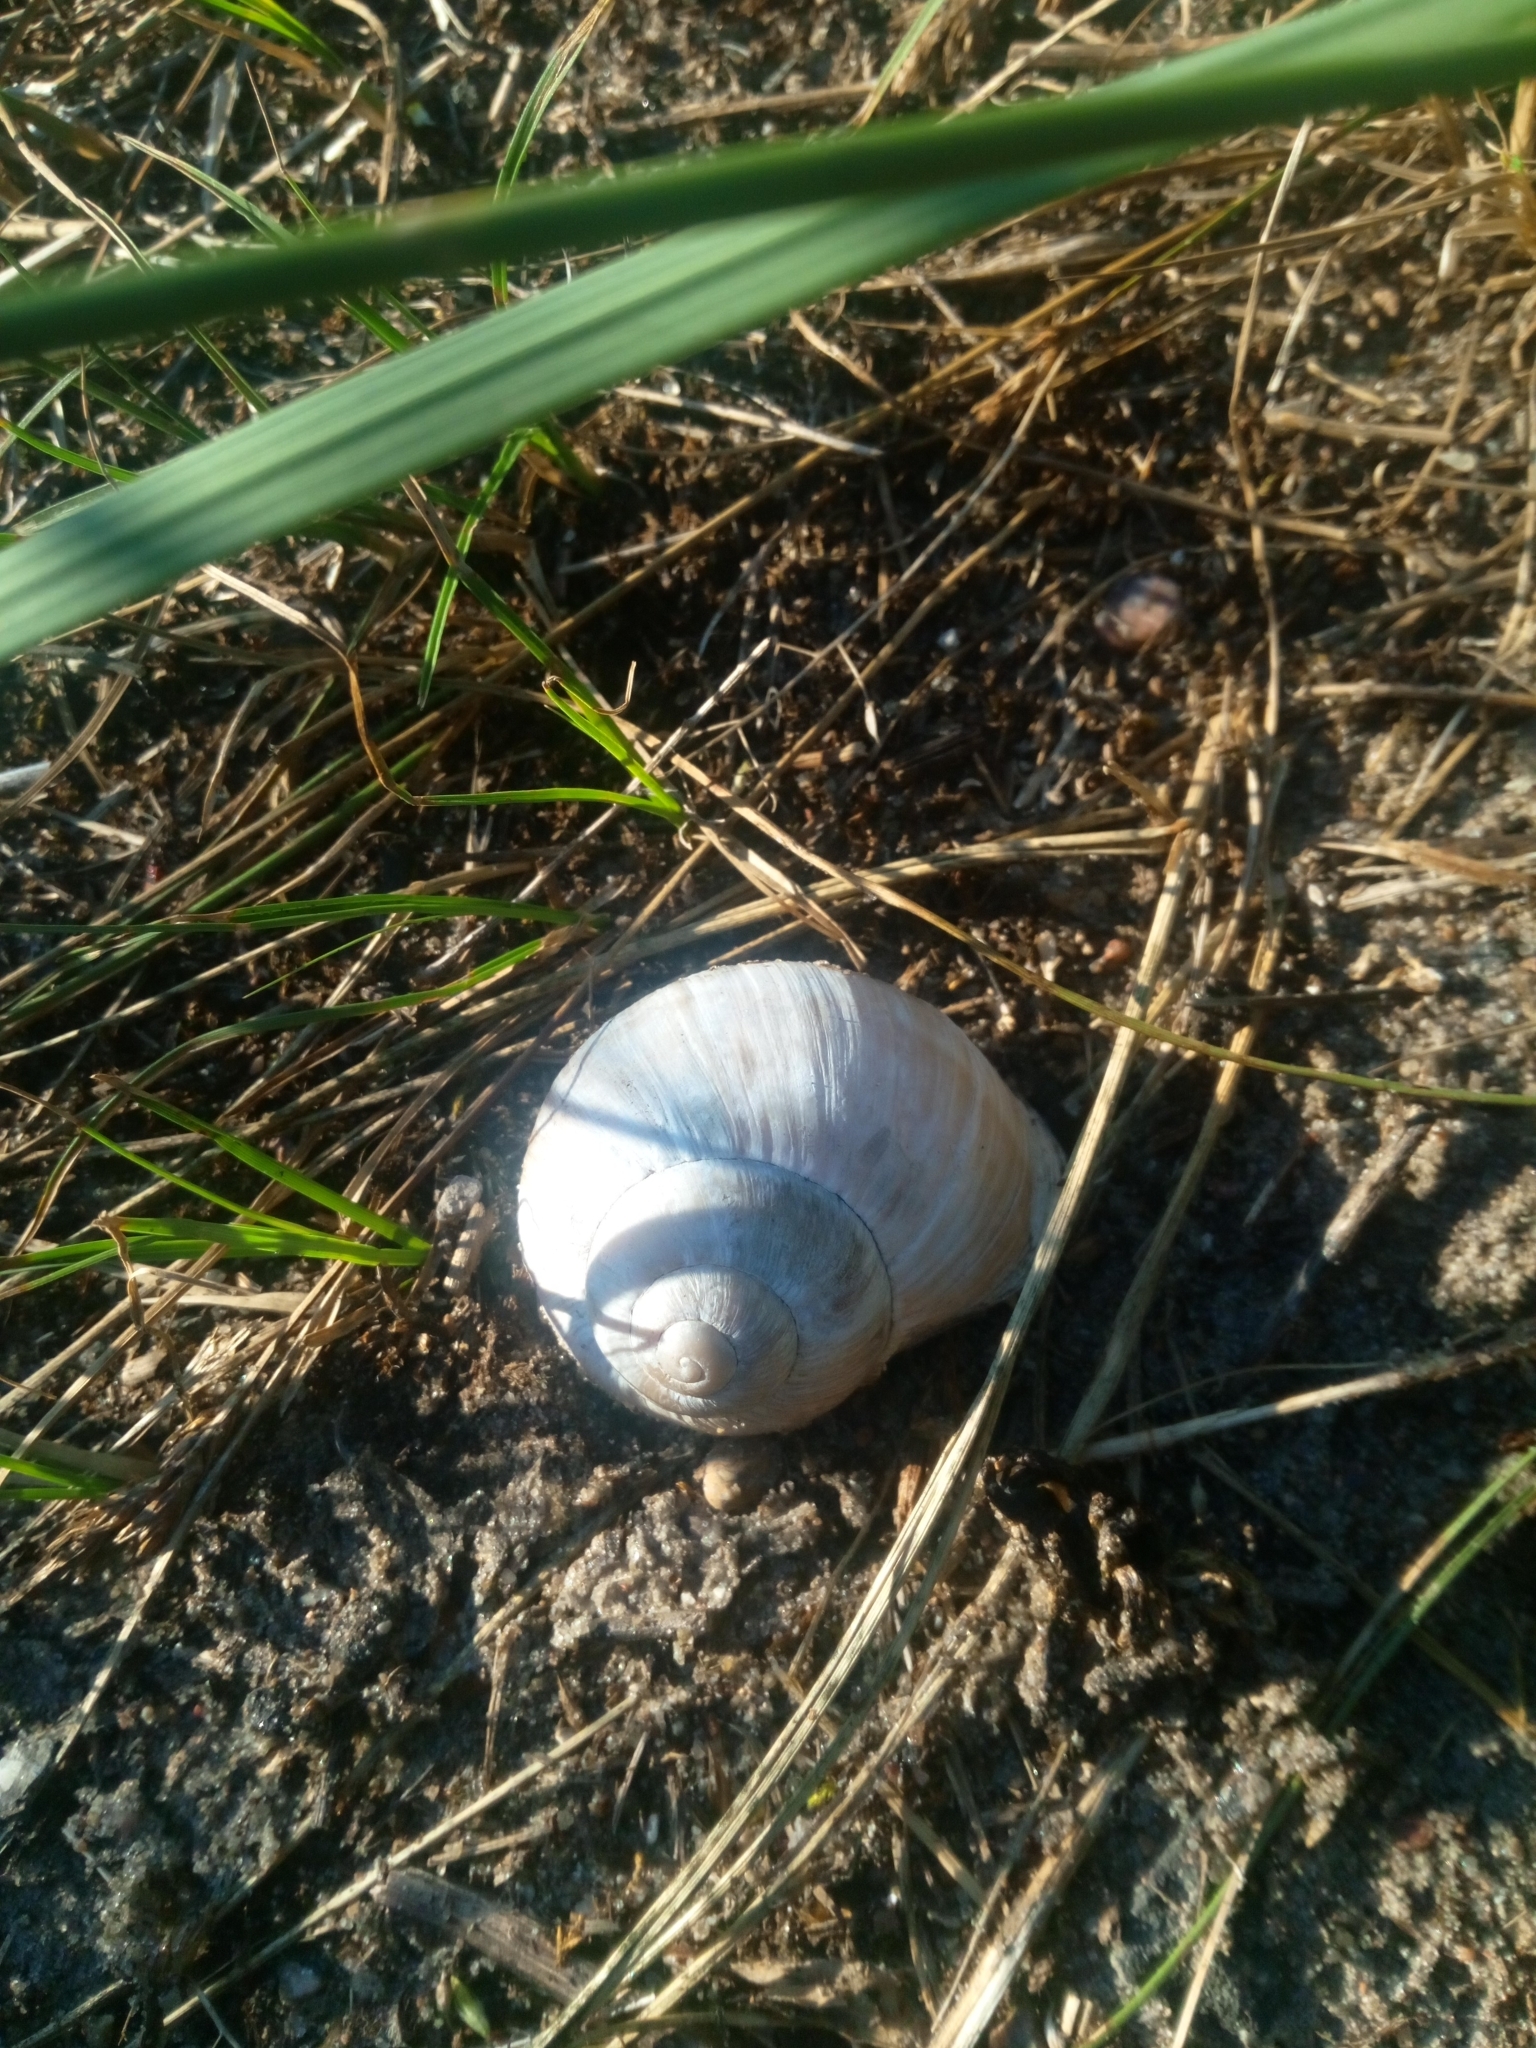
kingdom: Animalia
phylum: Mollusca
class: Gastropoda
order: Stylommatophora
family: Helicidae
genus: Helix
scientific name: Helix pomatia
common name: Roman snail
